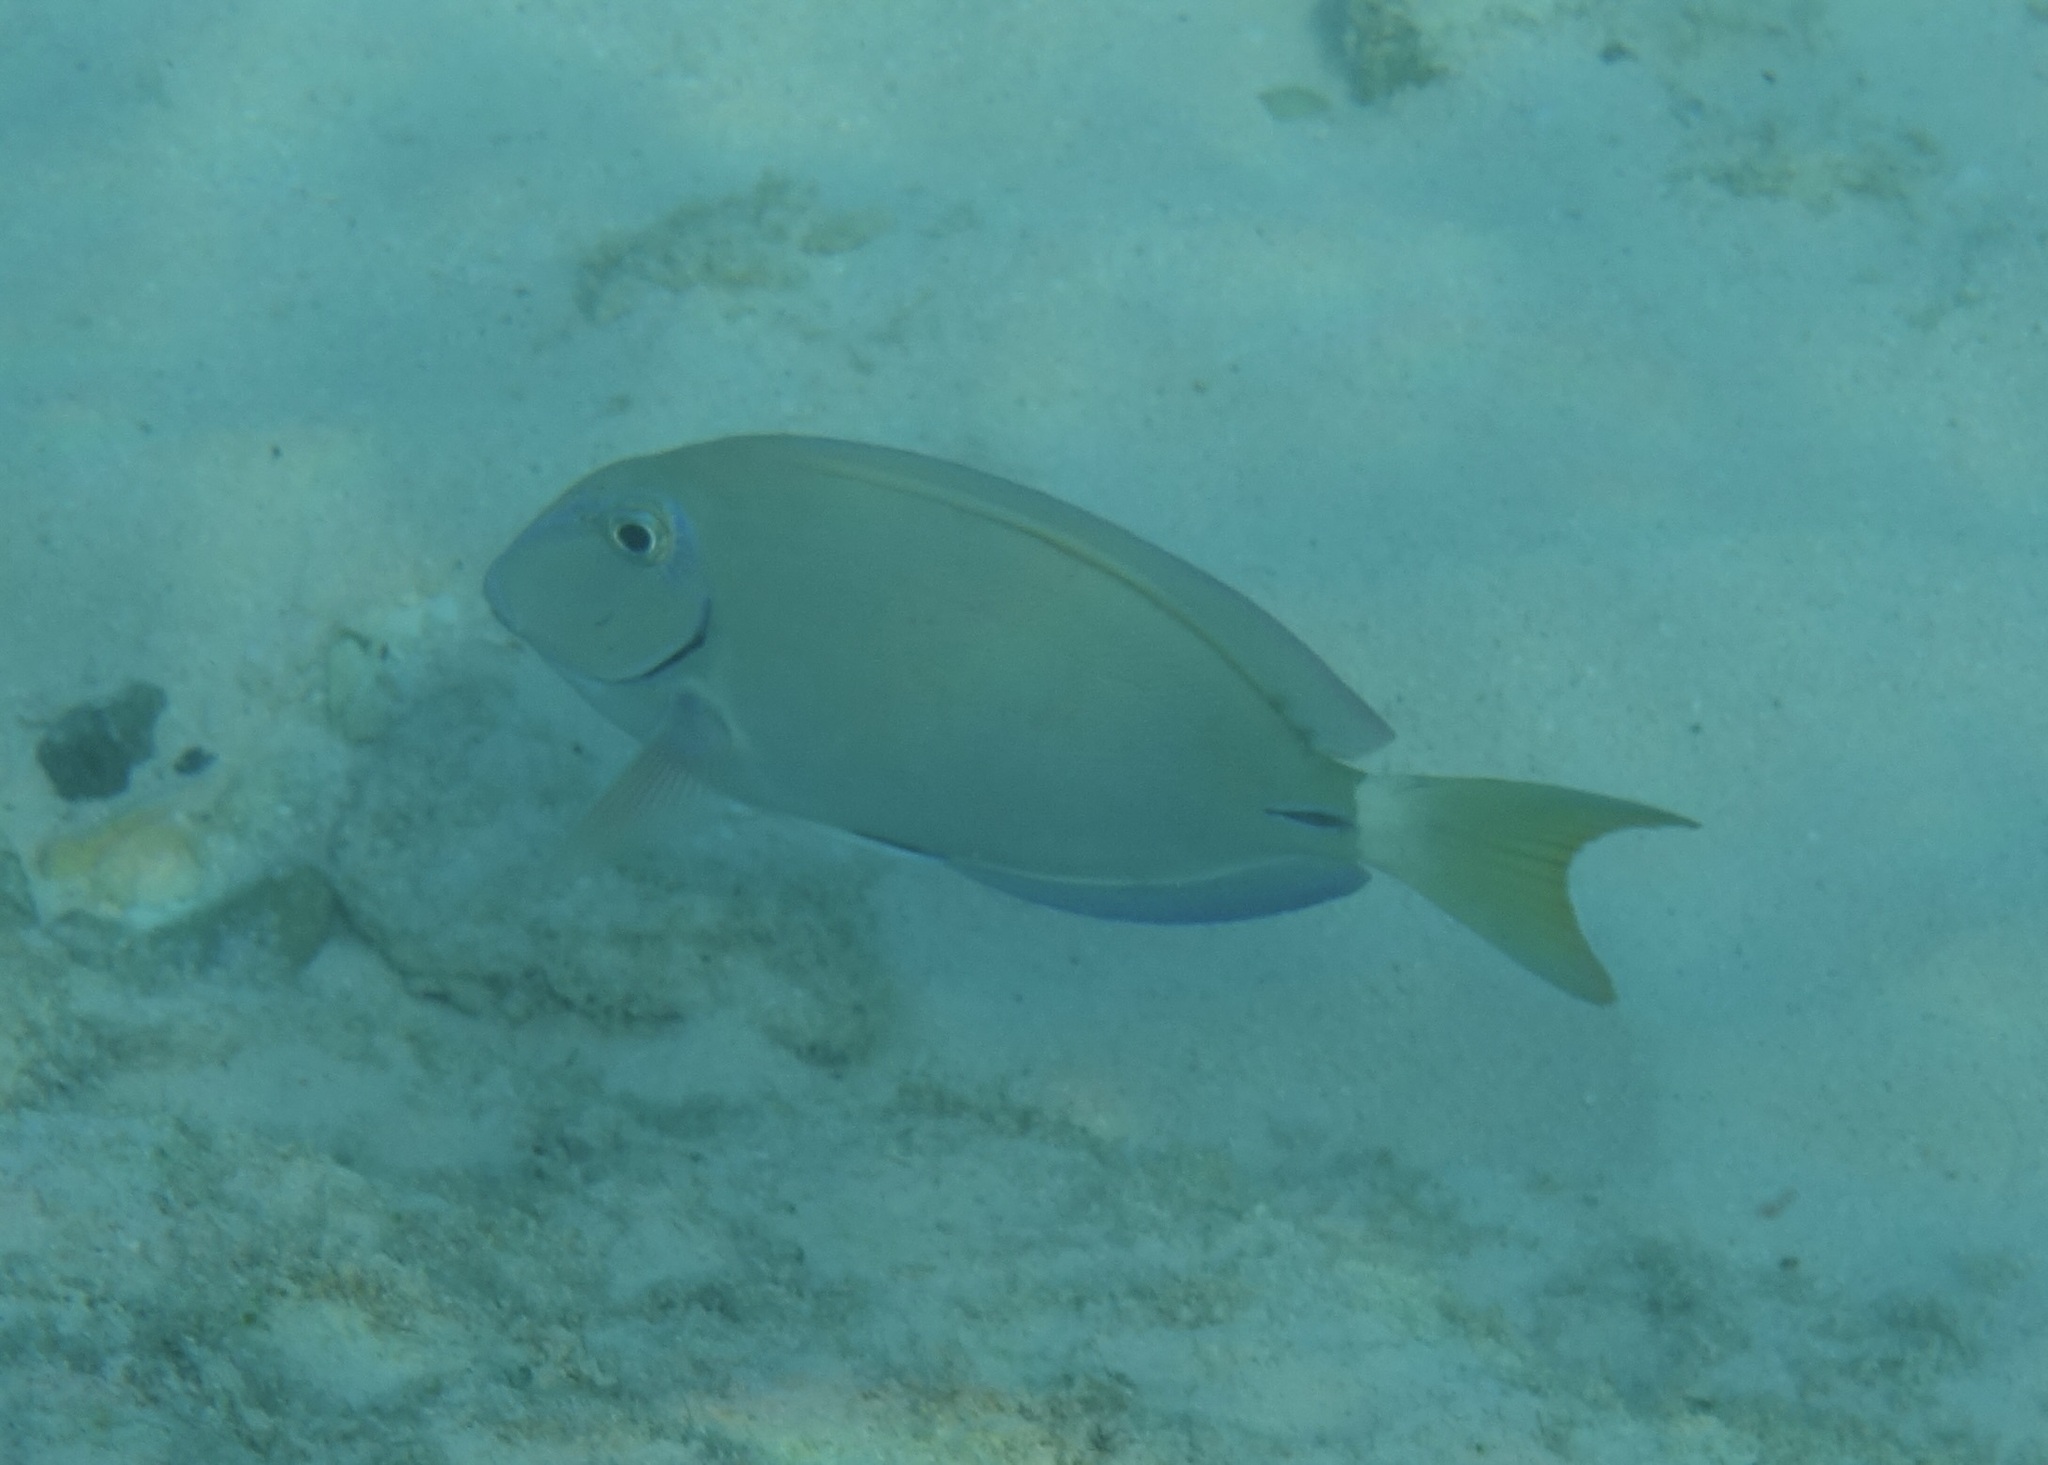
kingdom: Animalia
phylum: Chordata
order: Perciformes
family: Acanthuridae
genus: Acanthurus
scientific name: Acanthurus bahianus
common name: Ocean surgeon
